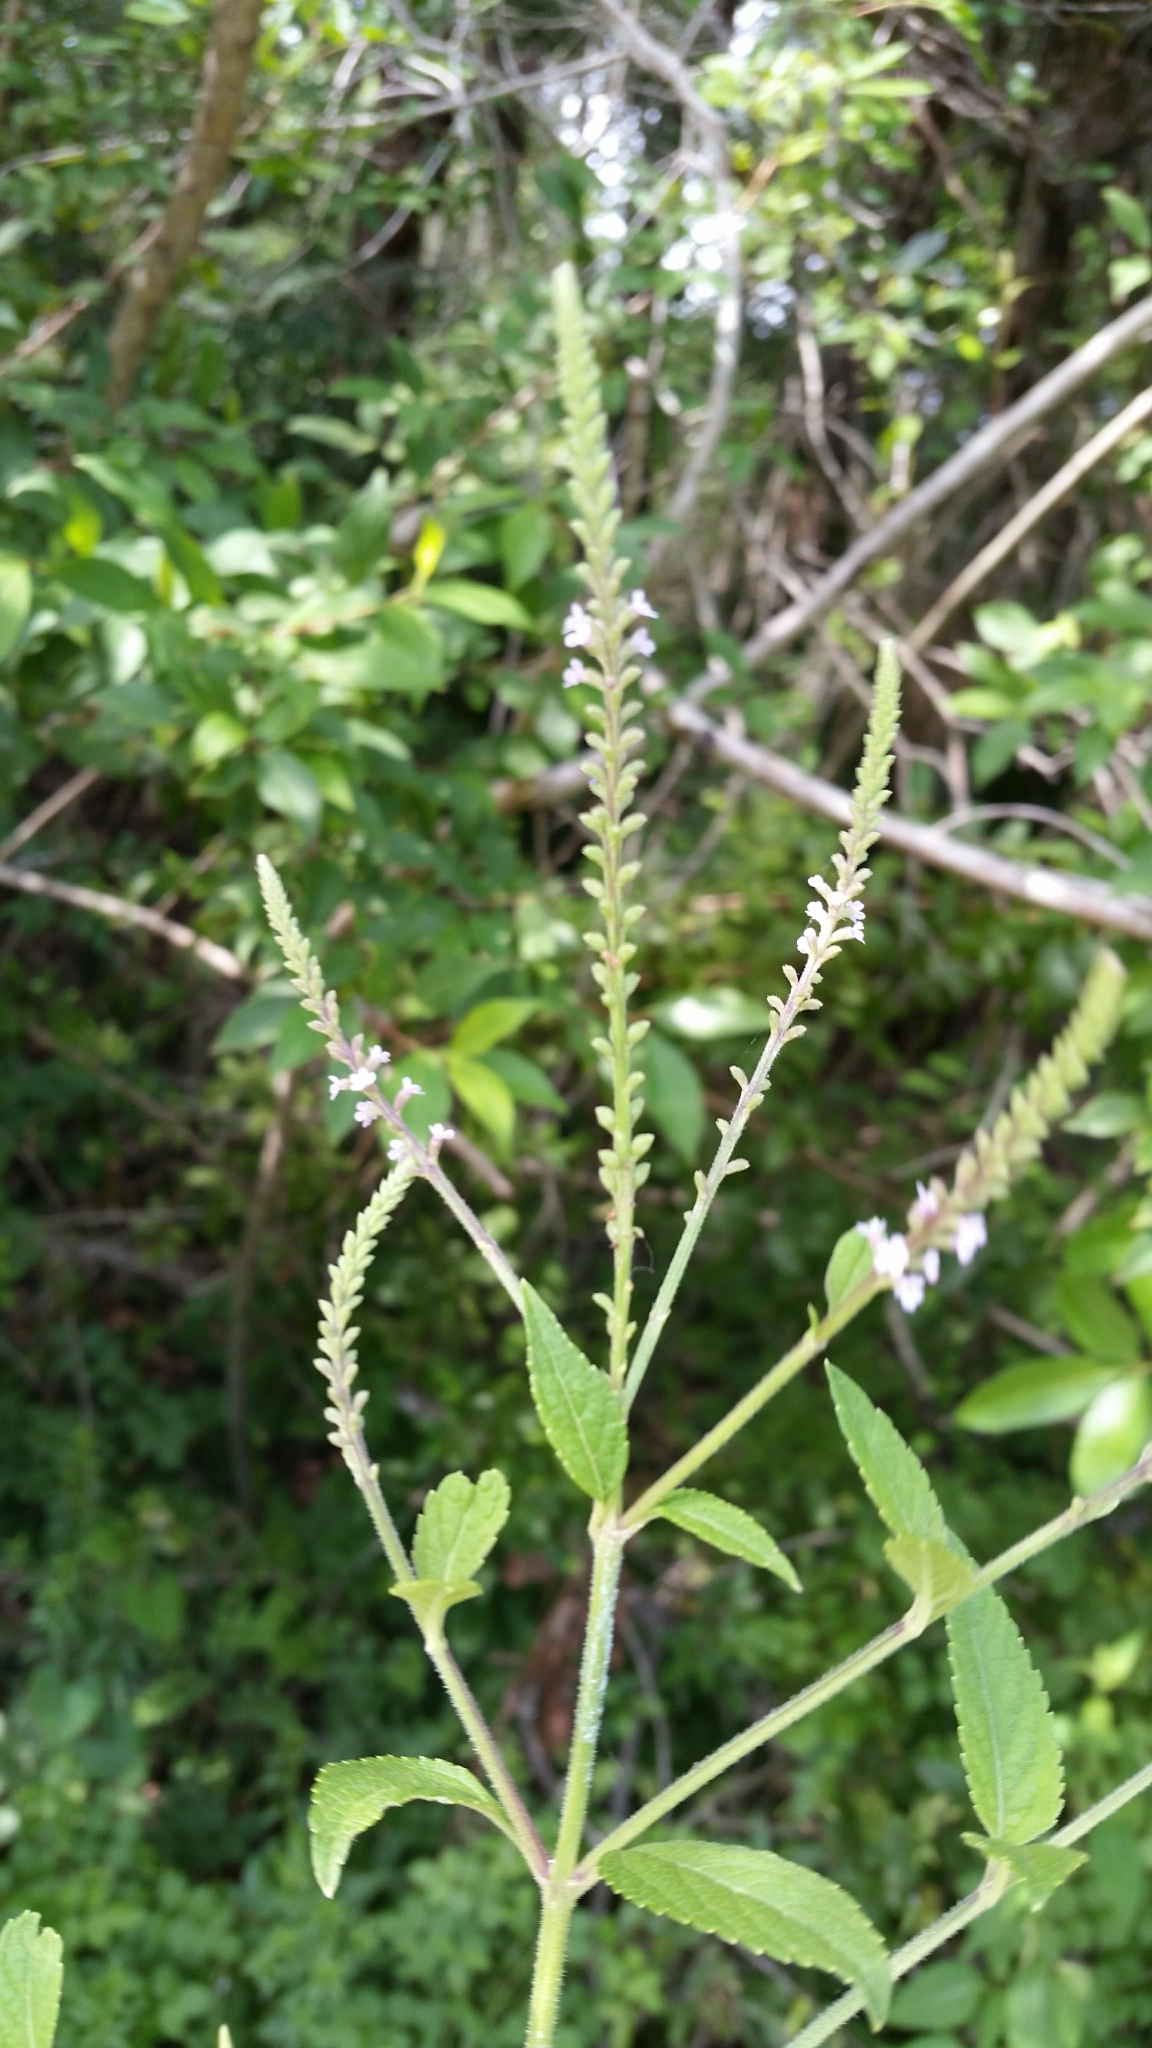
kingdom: Plantae
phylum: Tracheophyta
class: Magnoliopsida
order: Lamiales
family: Verbenaceae
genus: Verbena
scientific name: Verbena scabra
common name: Sandpaper vervain
